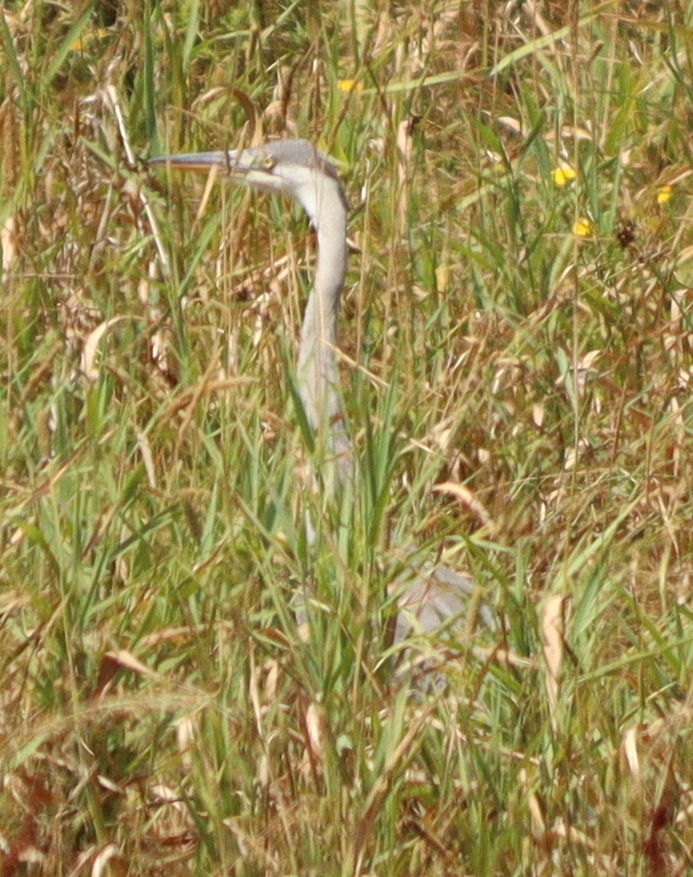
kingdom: Animalia
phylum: Chordata
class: Aves
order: Pelecaniformes
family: Ardeidae
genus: Ardea
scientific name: Ardea cinerea
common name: Grey heron
